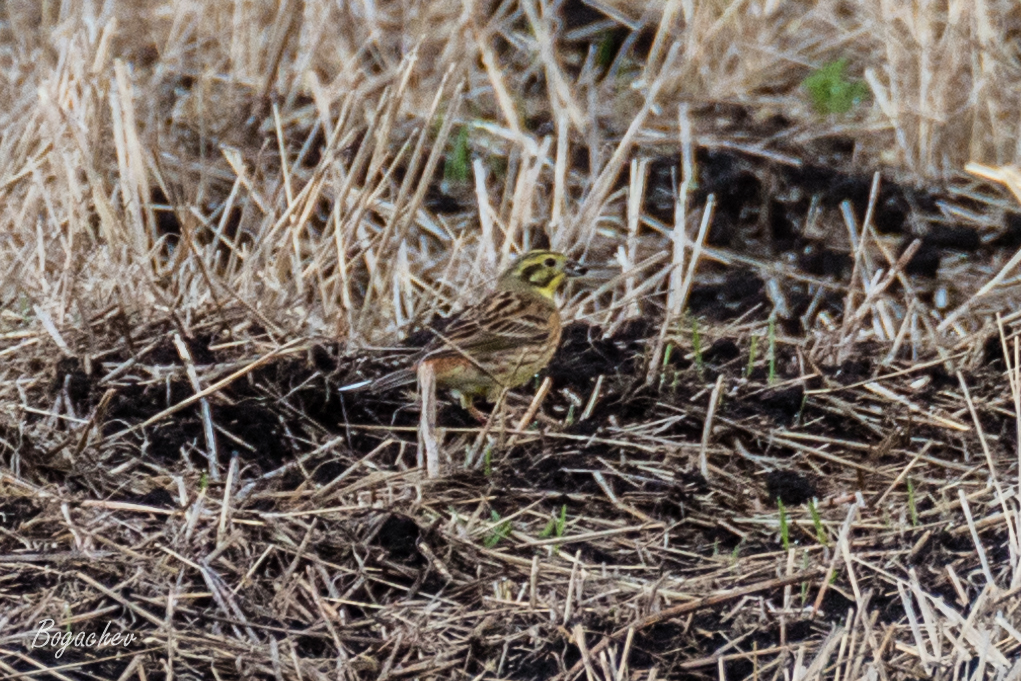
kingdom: Animalia
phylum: Chordata
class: Aves
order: Passeriformes
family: Emberizidae
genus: Emberiza
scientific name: Emberiza citrinella
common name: Yellowhammer
